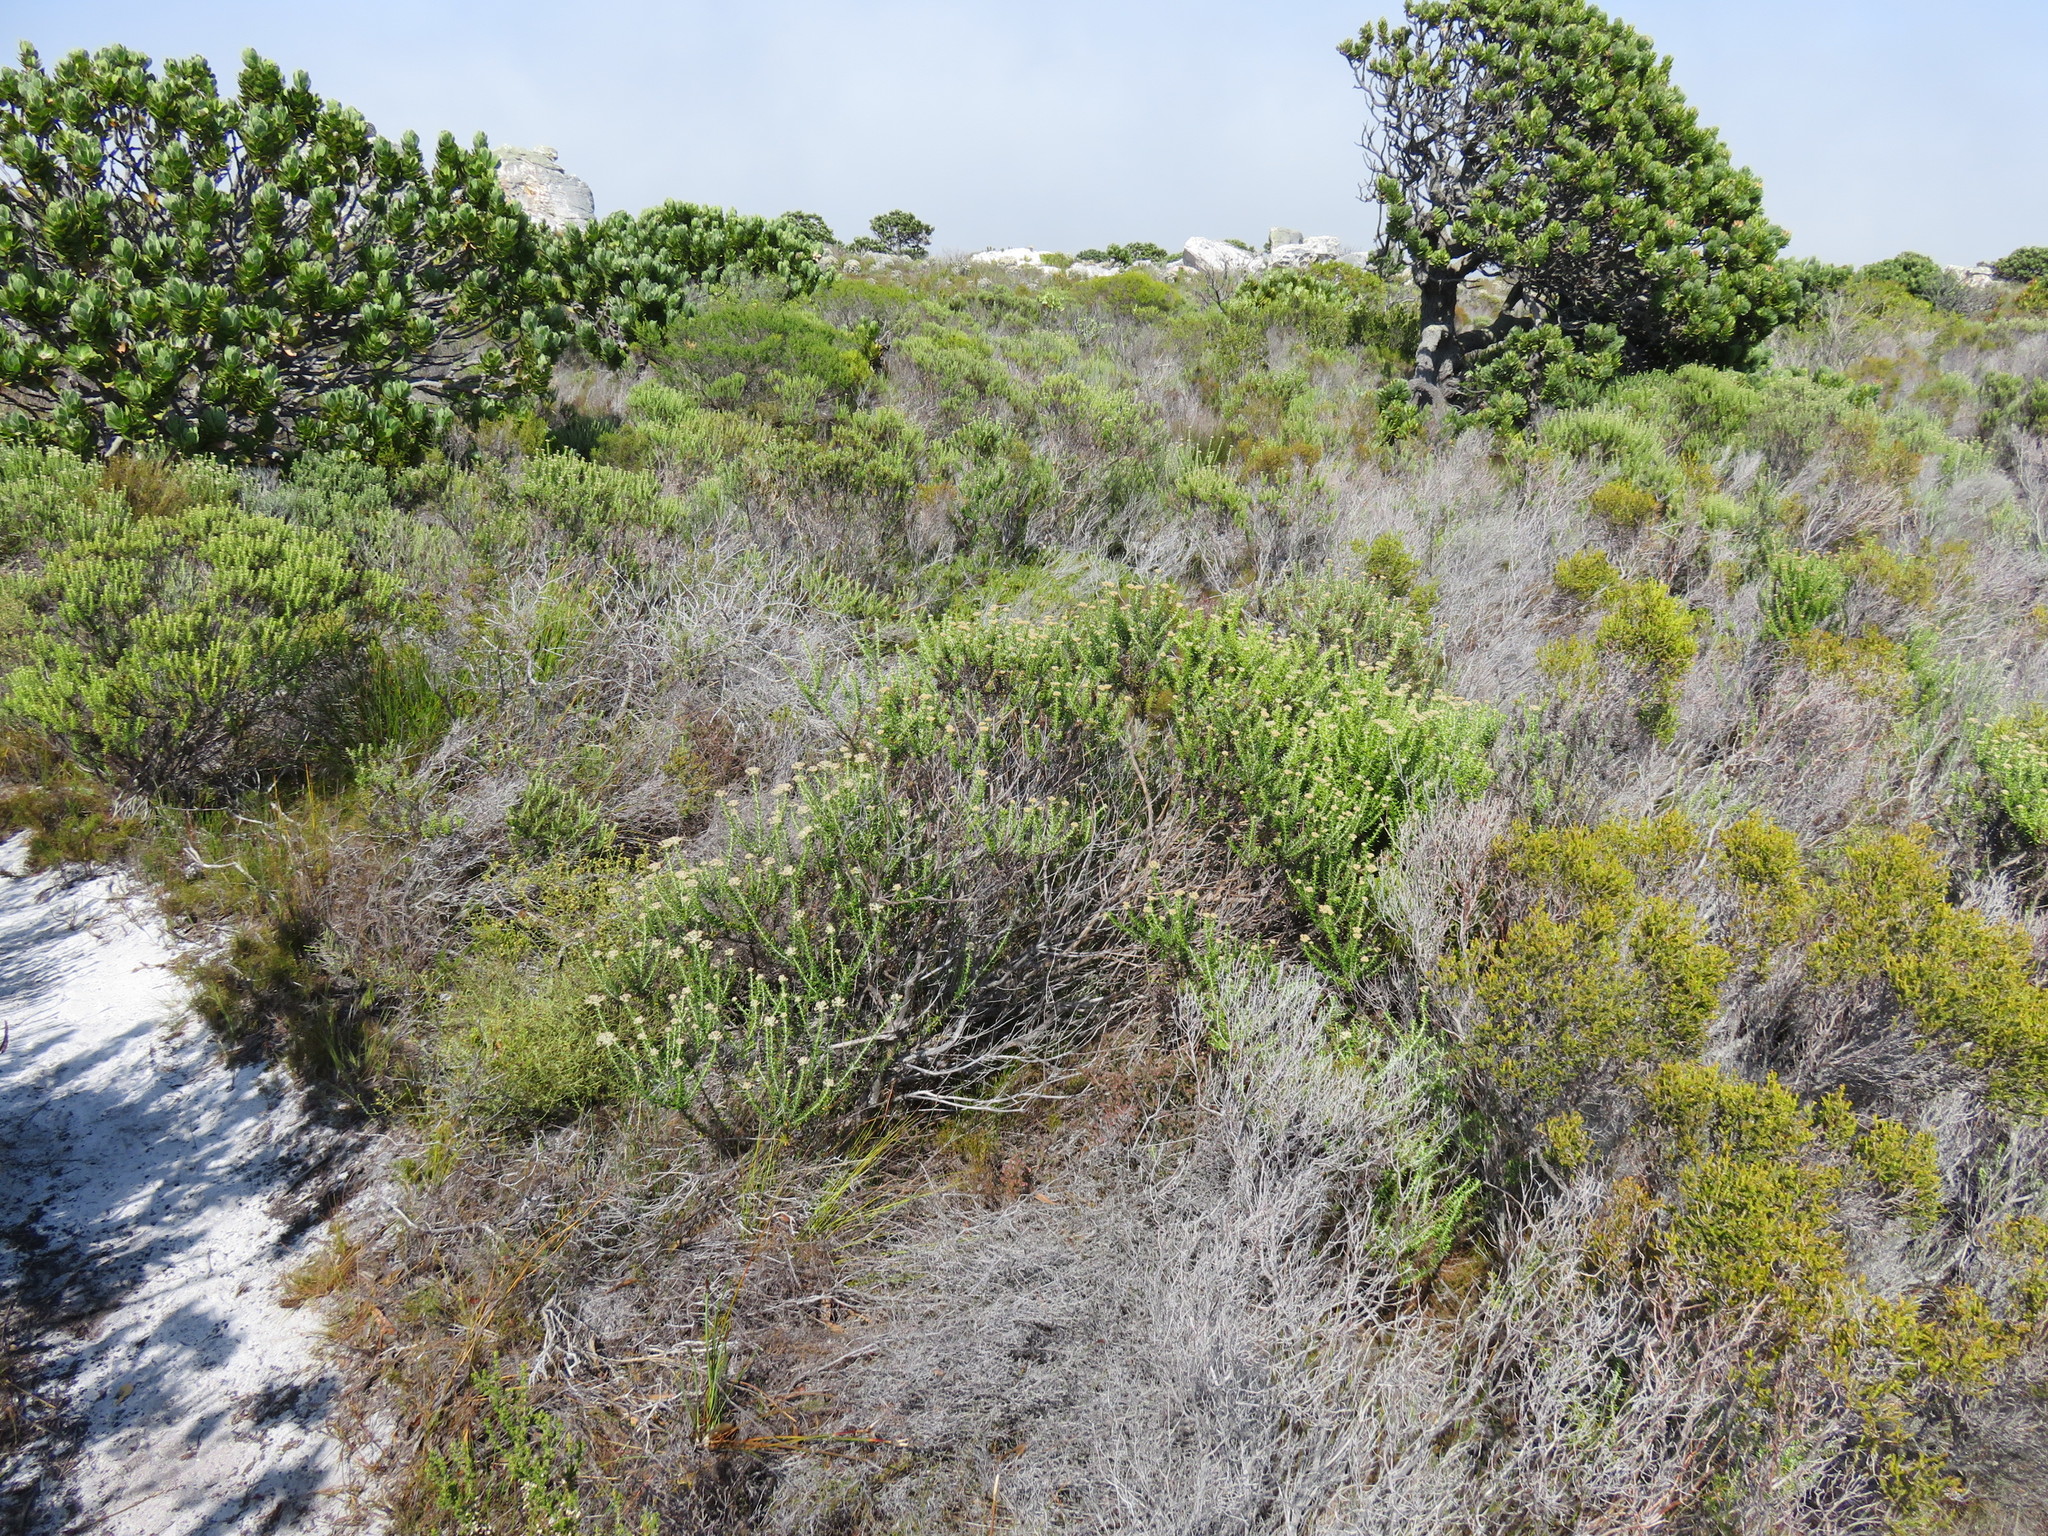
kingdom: Plantae
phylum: Tracheophyta
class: Magnoliopsida
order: Asterales
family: Asteraceae
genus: Metalasia
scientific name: Metalasia densa
